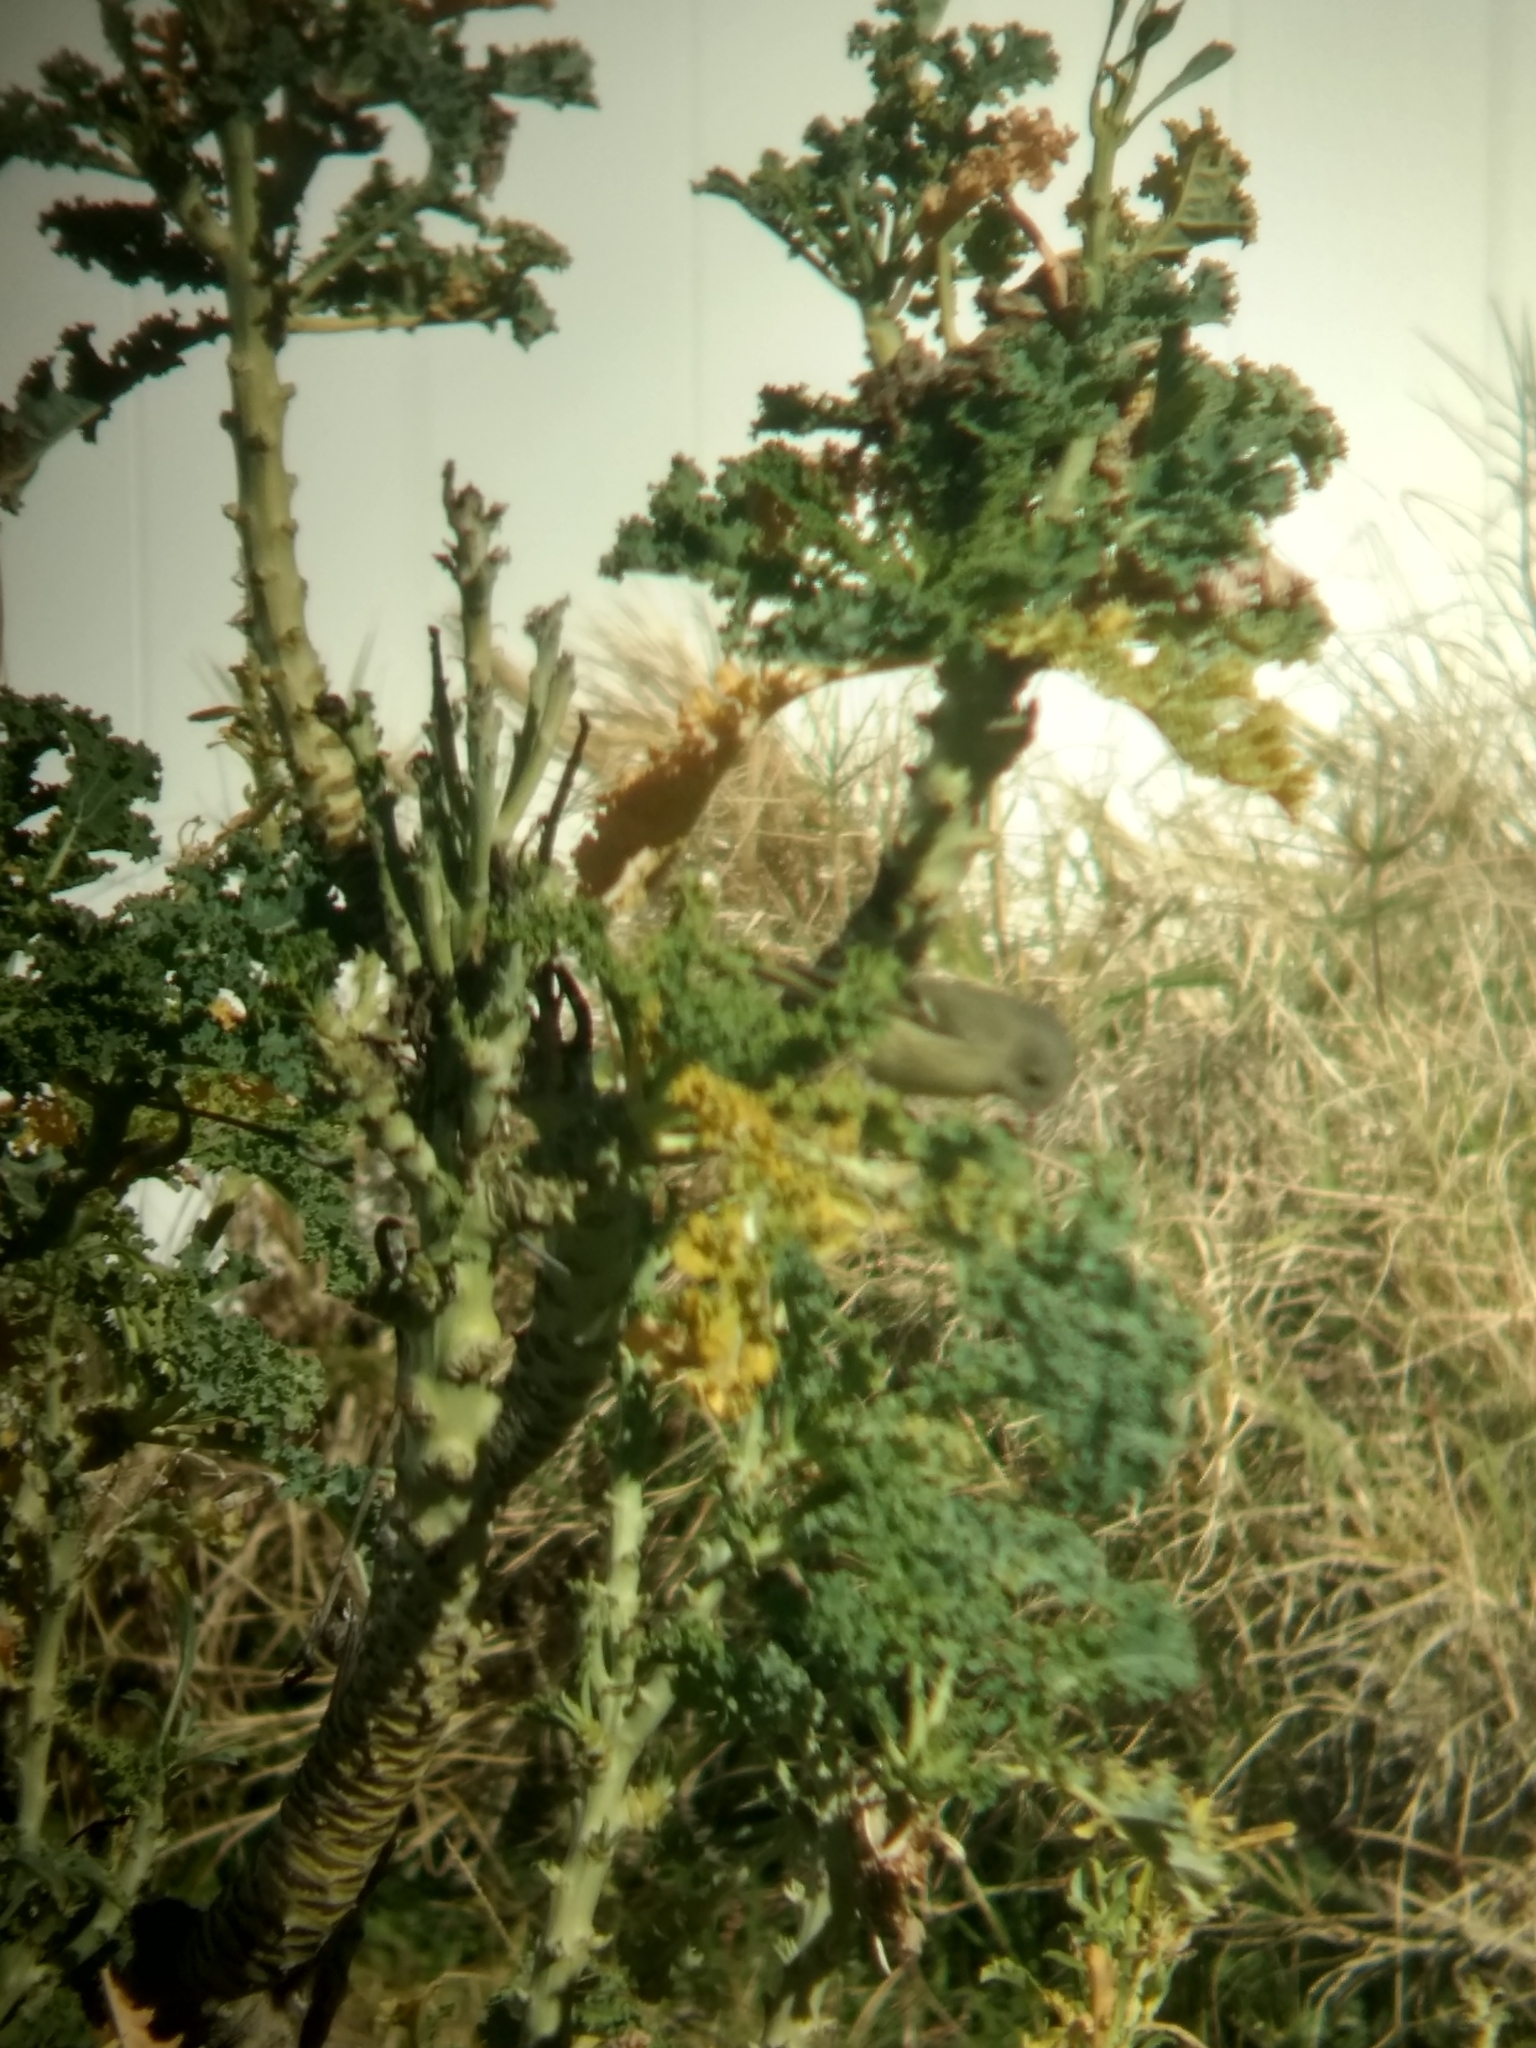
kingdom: Animalia
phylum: Chordata
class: Aves
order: Passeriformes
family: Regulidae
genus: Regulus
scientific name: Regulus calendula
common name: Ruby-crowned kinglet
